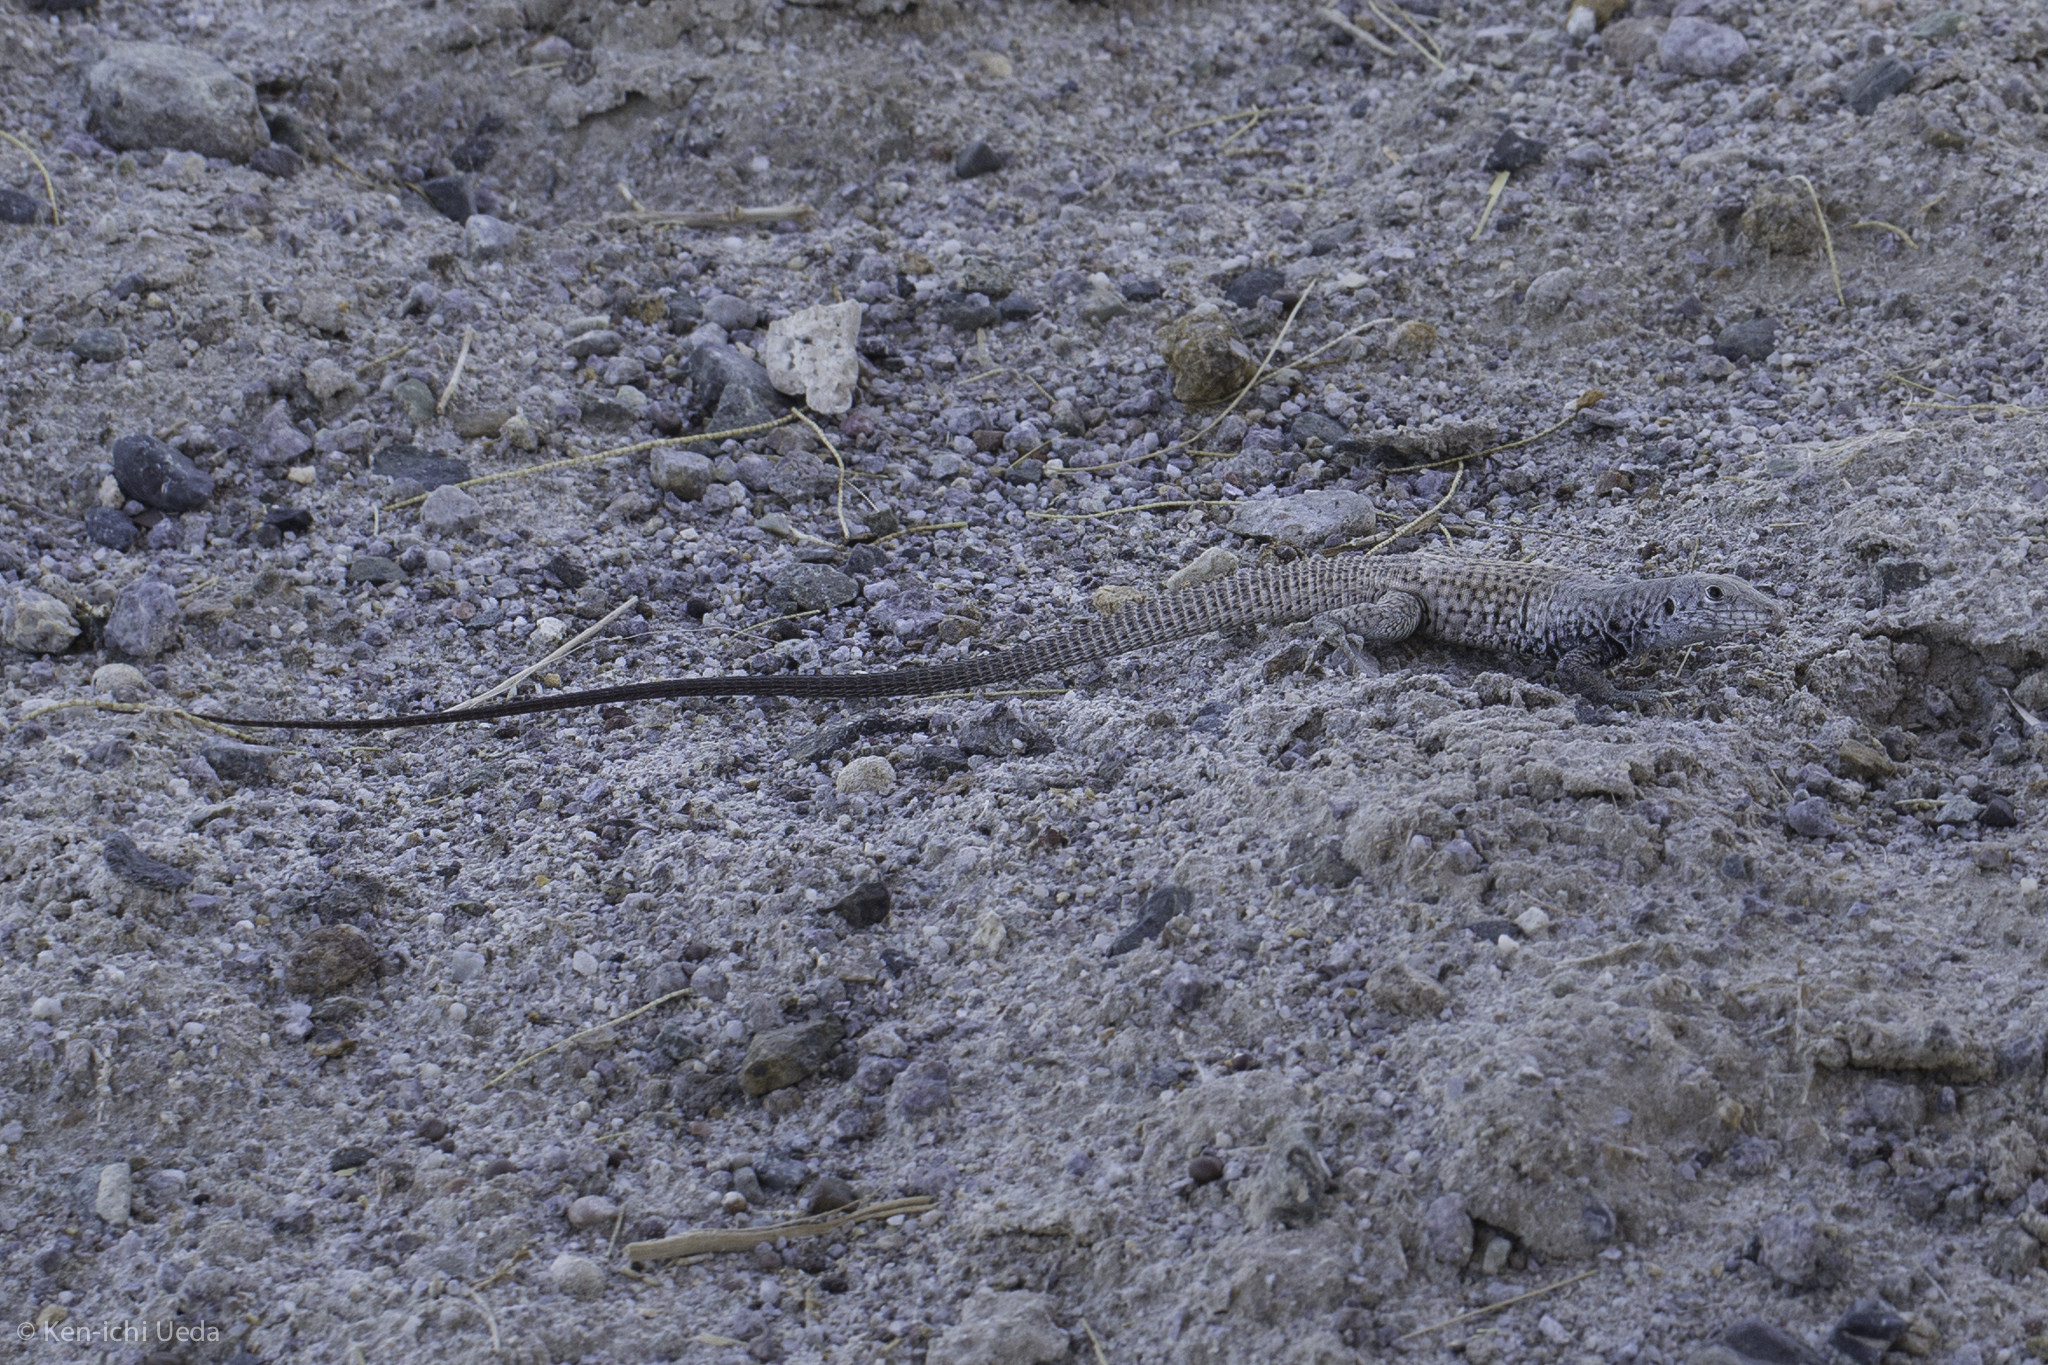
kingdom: Animalia
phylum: Chordata
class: Squamata
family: Teiidae
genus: Aspidoscelis
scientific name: Aspidoscelis tigris
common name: Tiger whiptail
